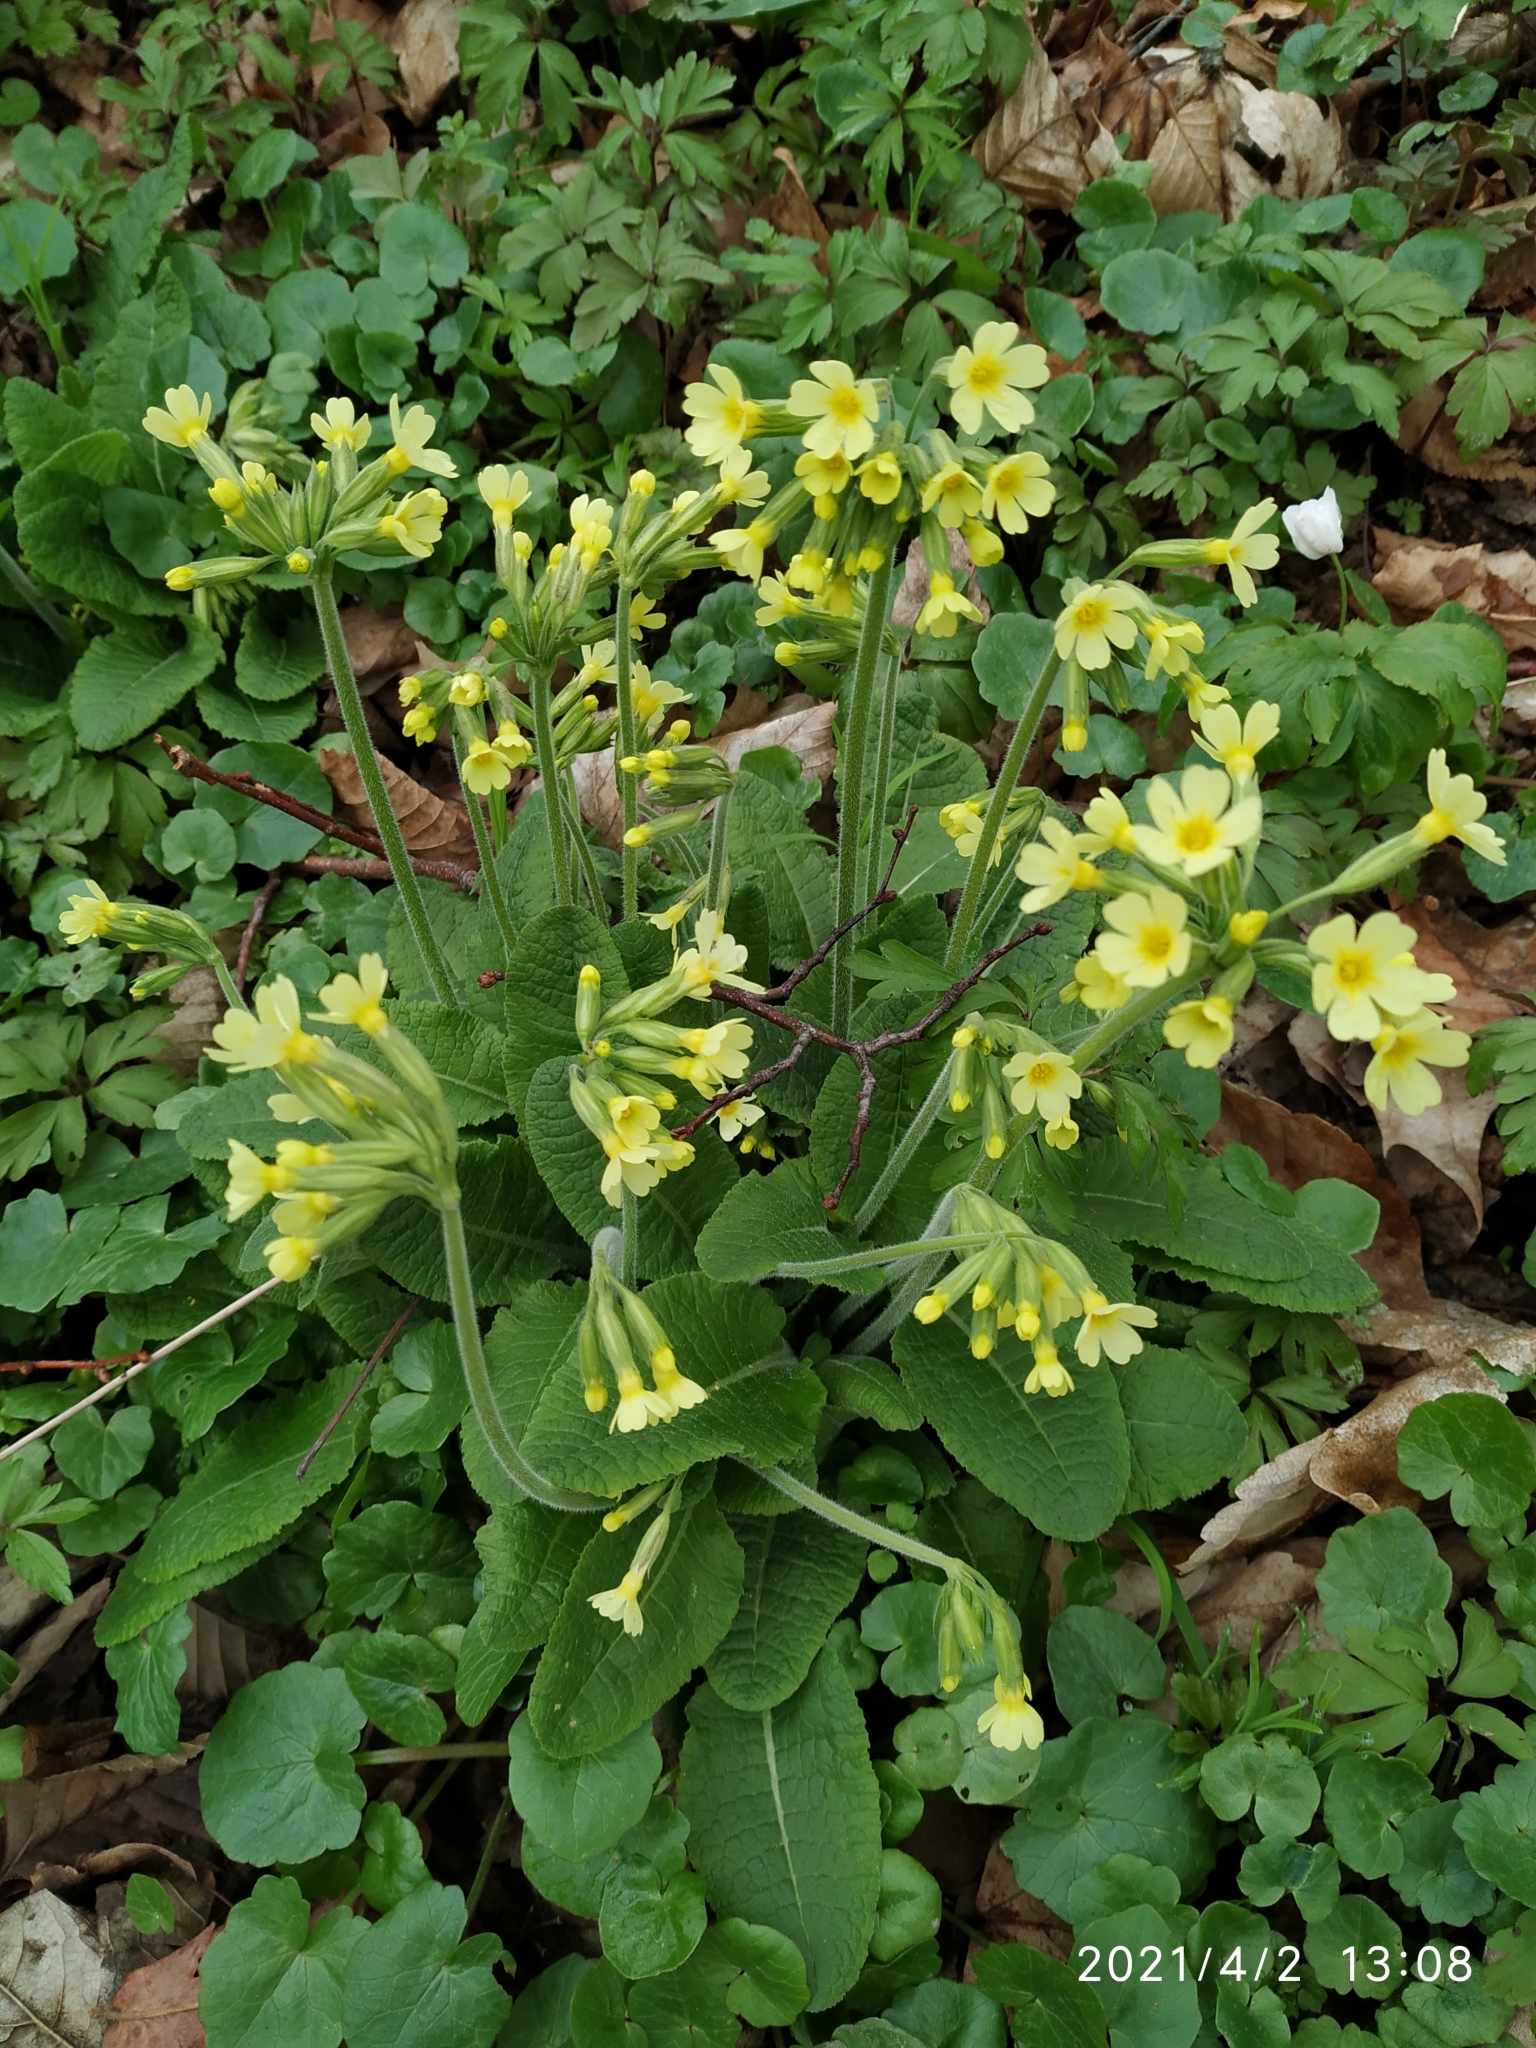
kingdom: Plantae
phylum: Tracheophyta
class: Magnoliopsida
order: Ericales
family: Primulaceae
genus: Primula
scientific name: Primula elatior
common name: Oxlip
